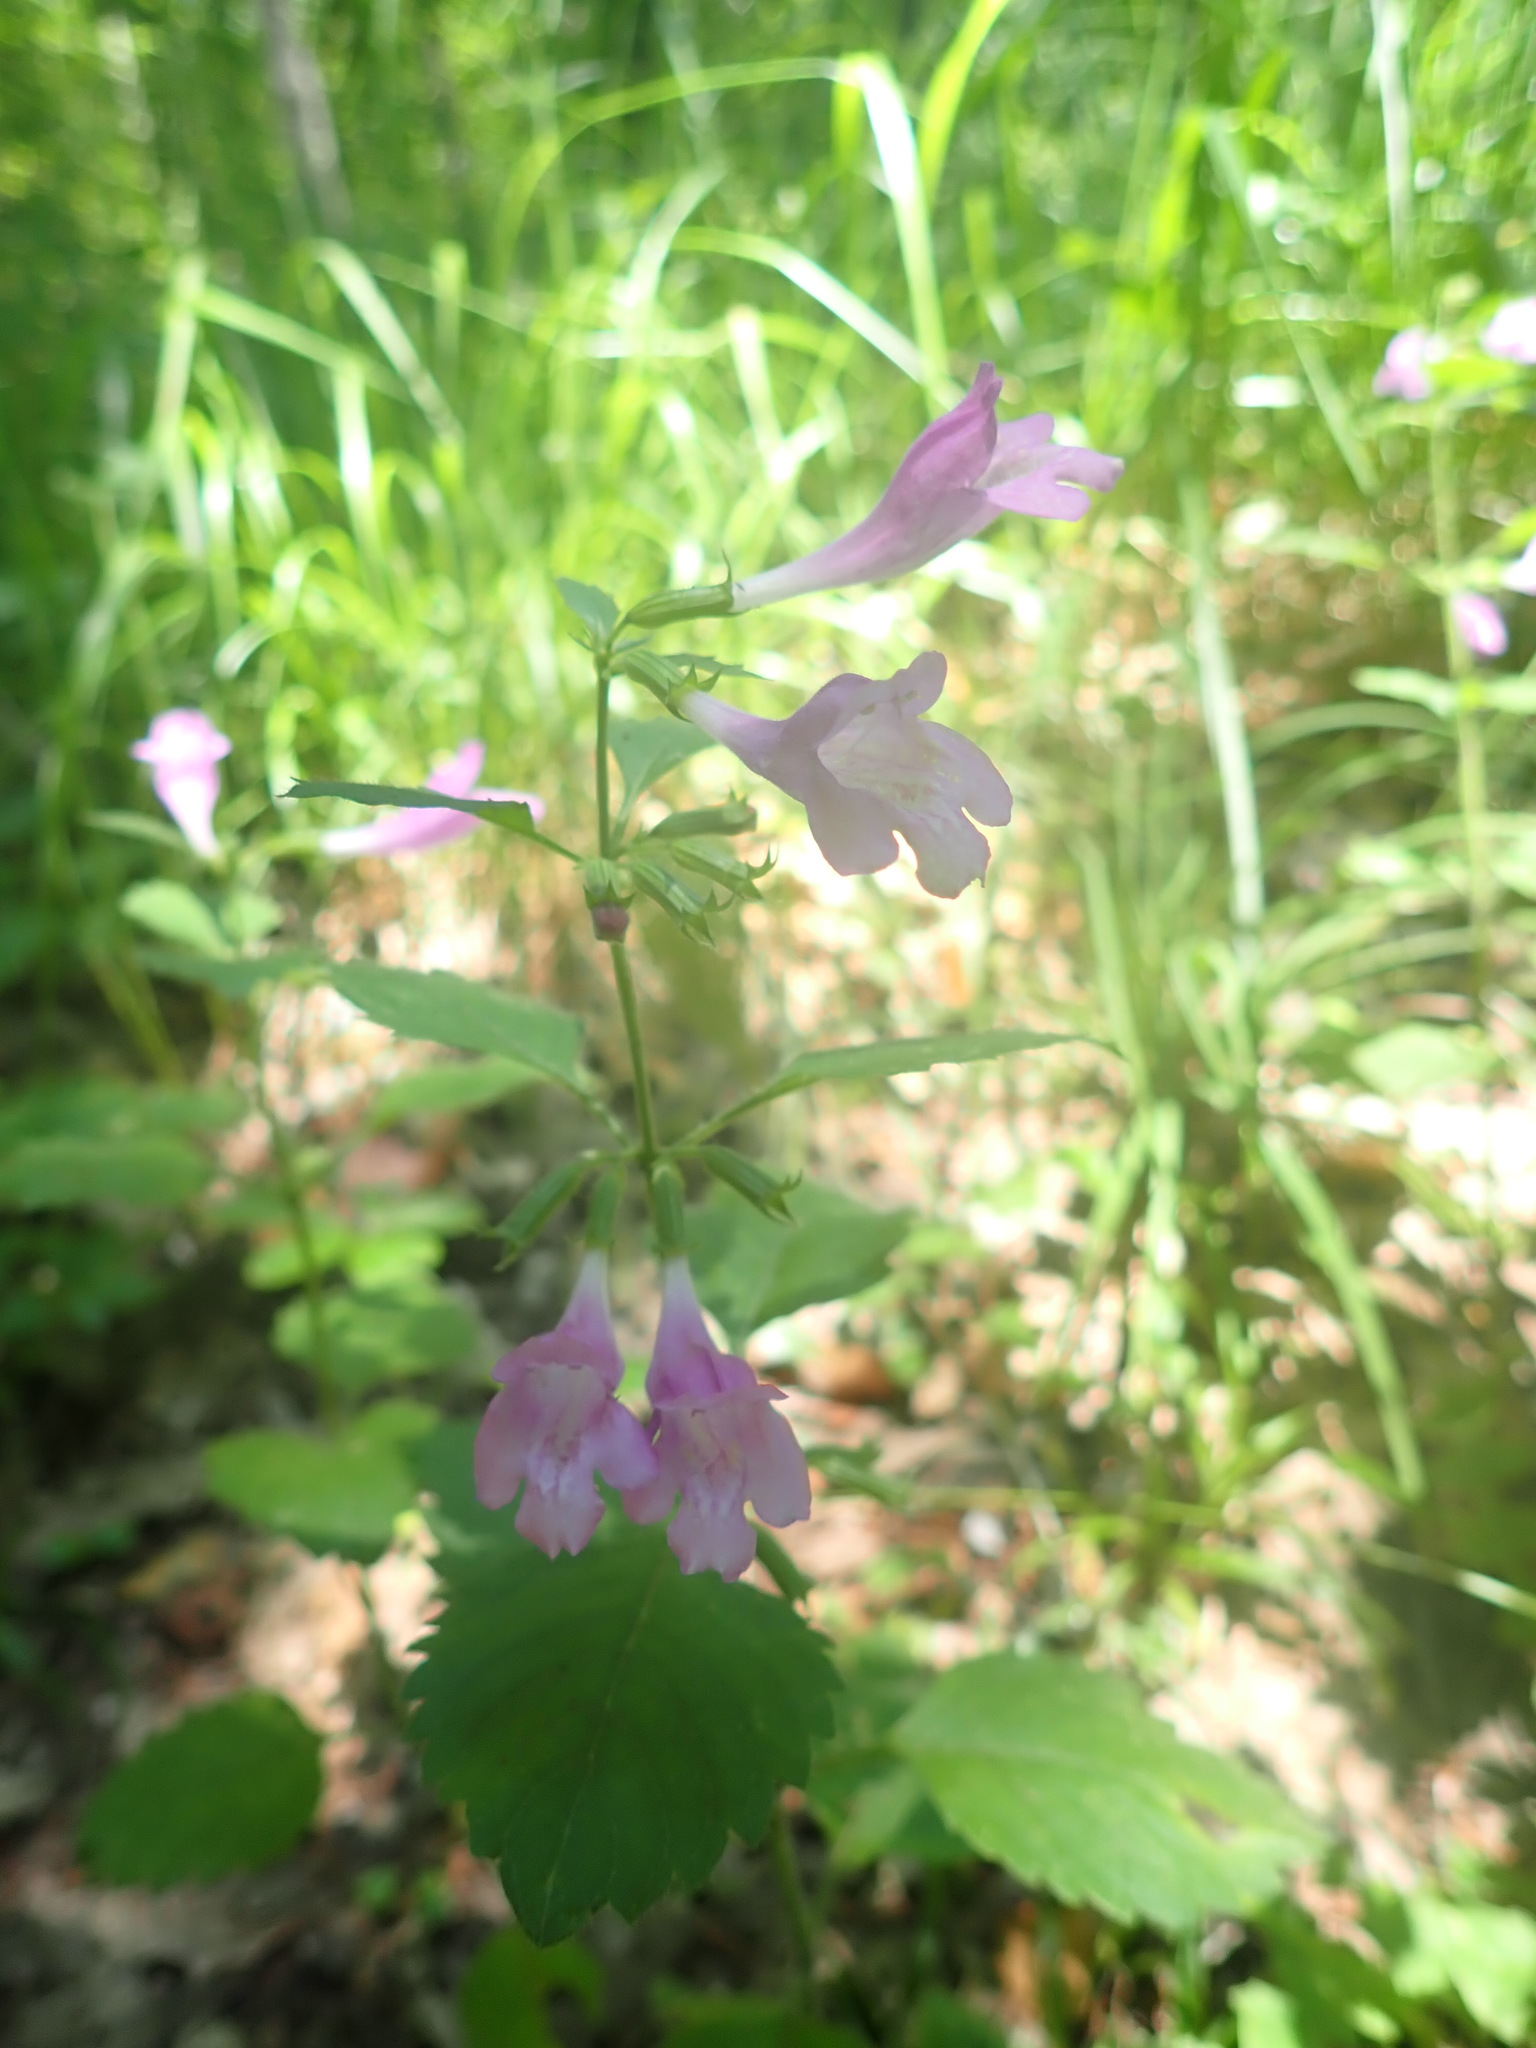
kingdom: Plantae
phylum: Tracheophyta
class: Magnoliopsida
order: Lamiales
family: Lamiaceae
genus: Clinopodium
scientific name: Clinopodium grandiflorum
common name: Greater calamint
